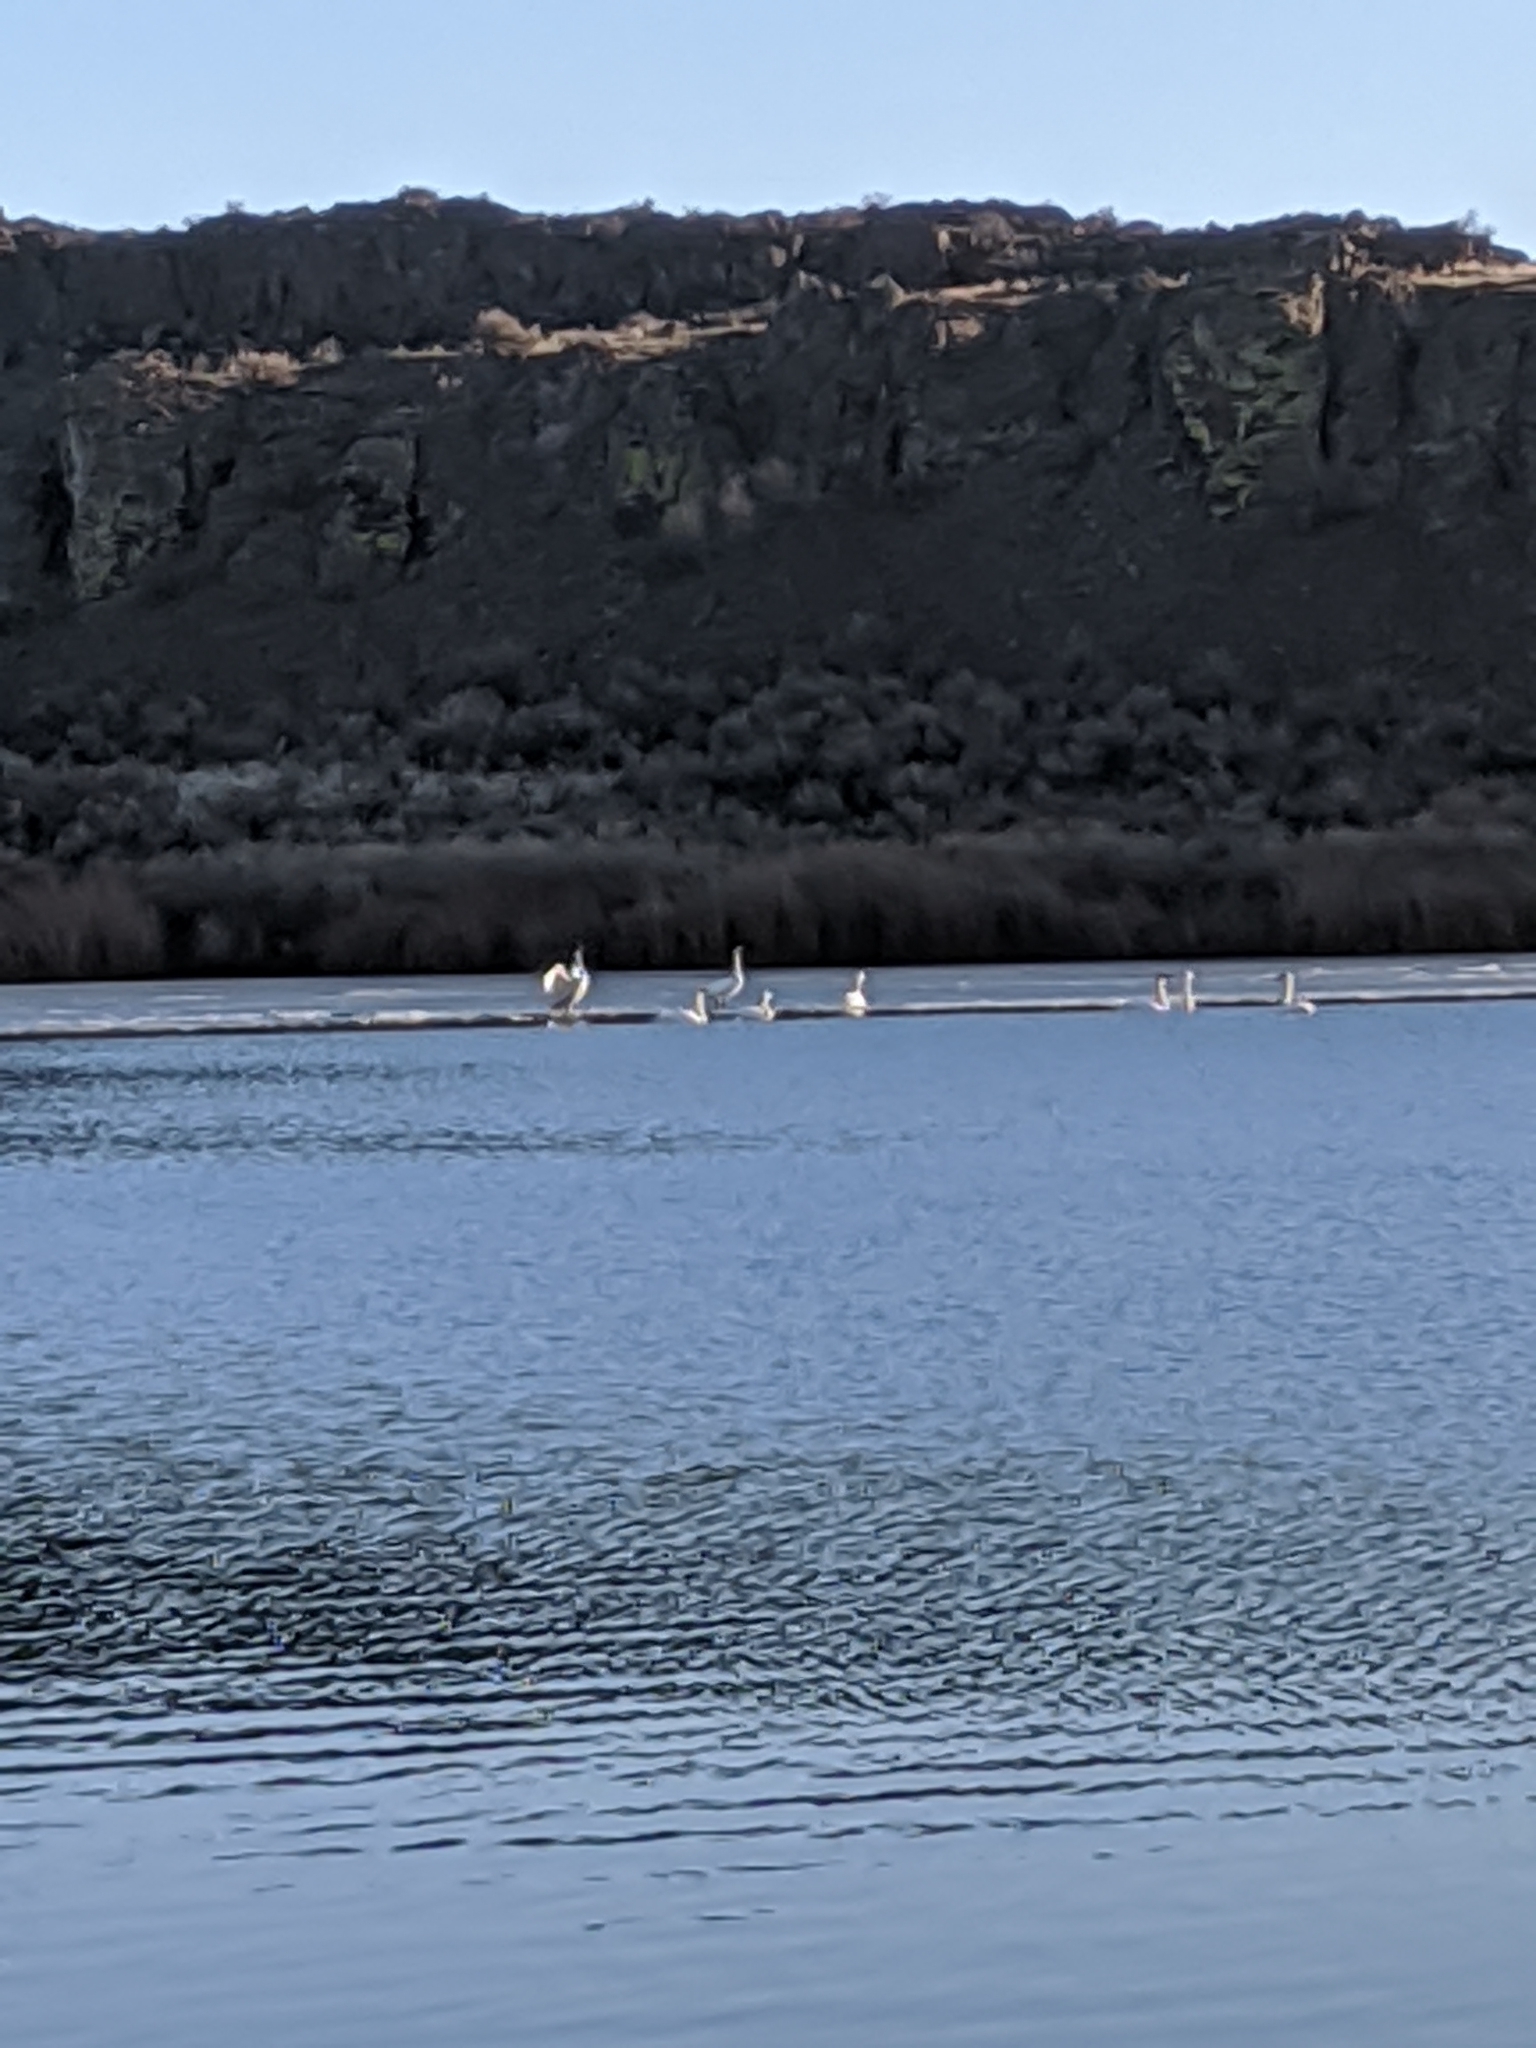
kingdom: Animalia
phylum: Chordata
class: Aves
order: Anseriformes
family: Anatidae
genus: Cygnus
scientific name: Cygnus buccinator
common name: Trumpeter swan
